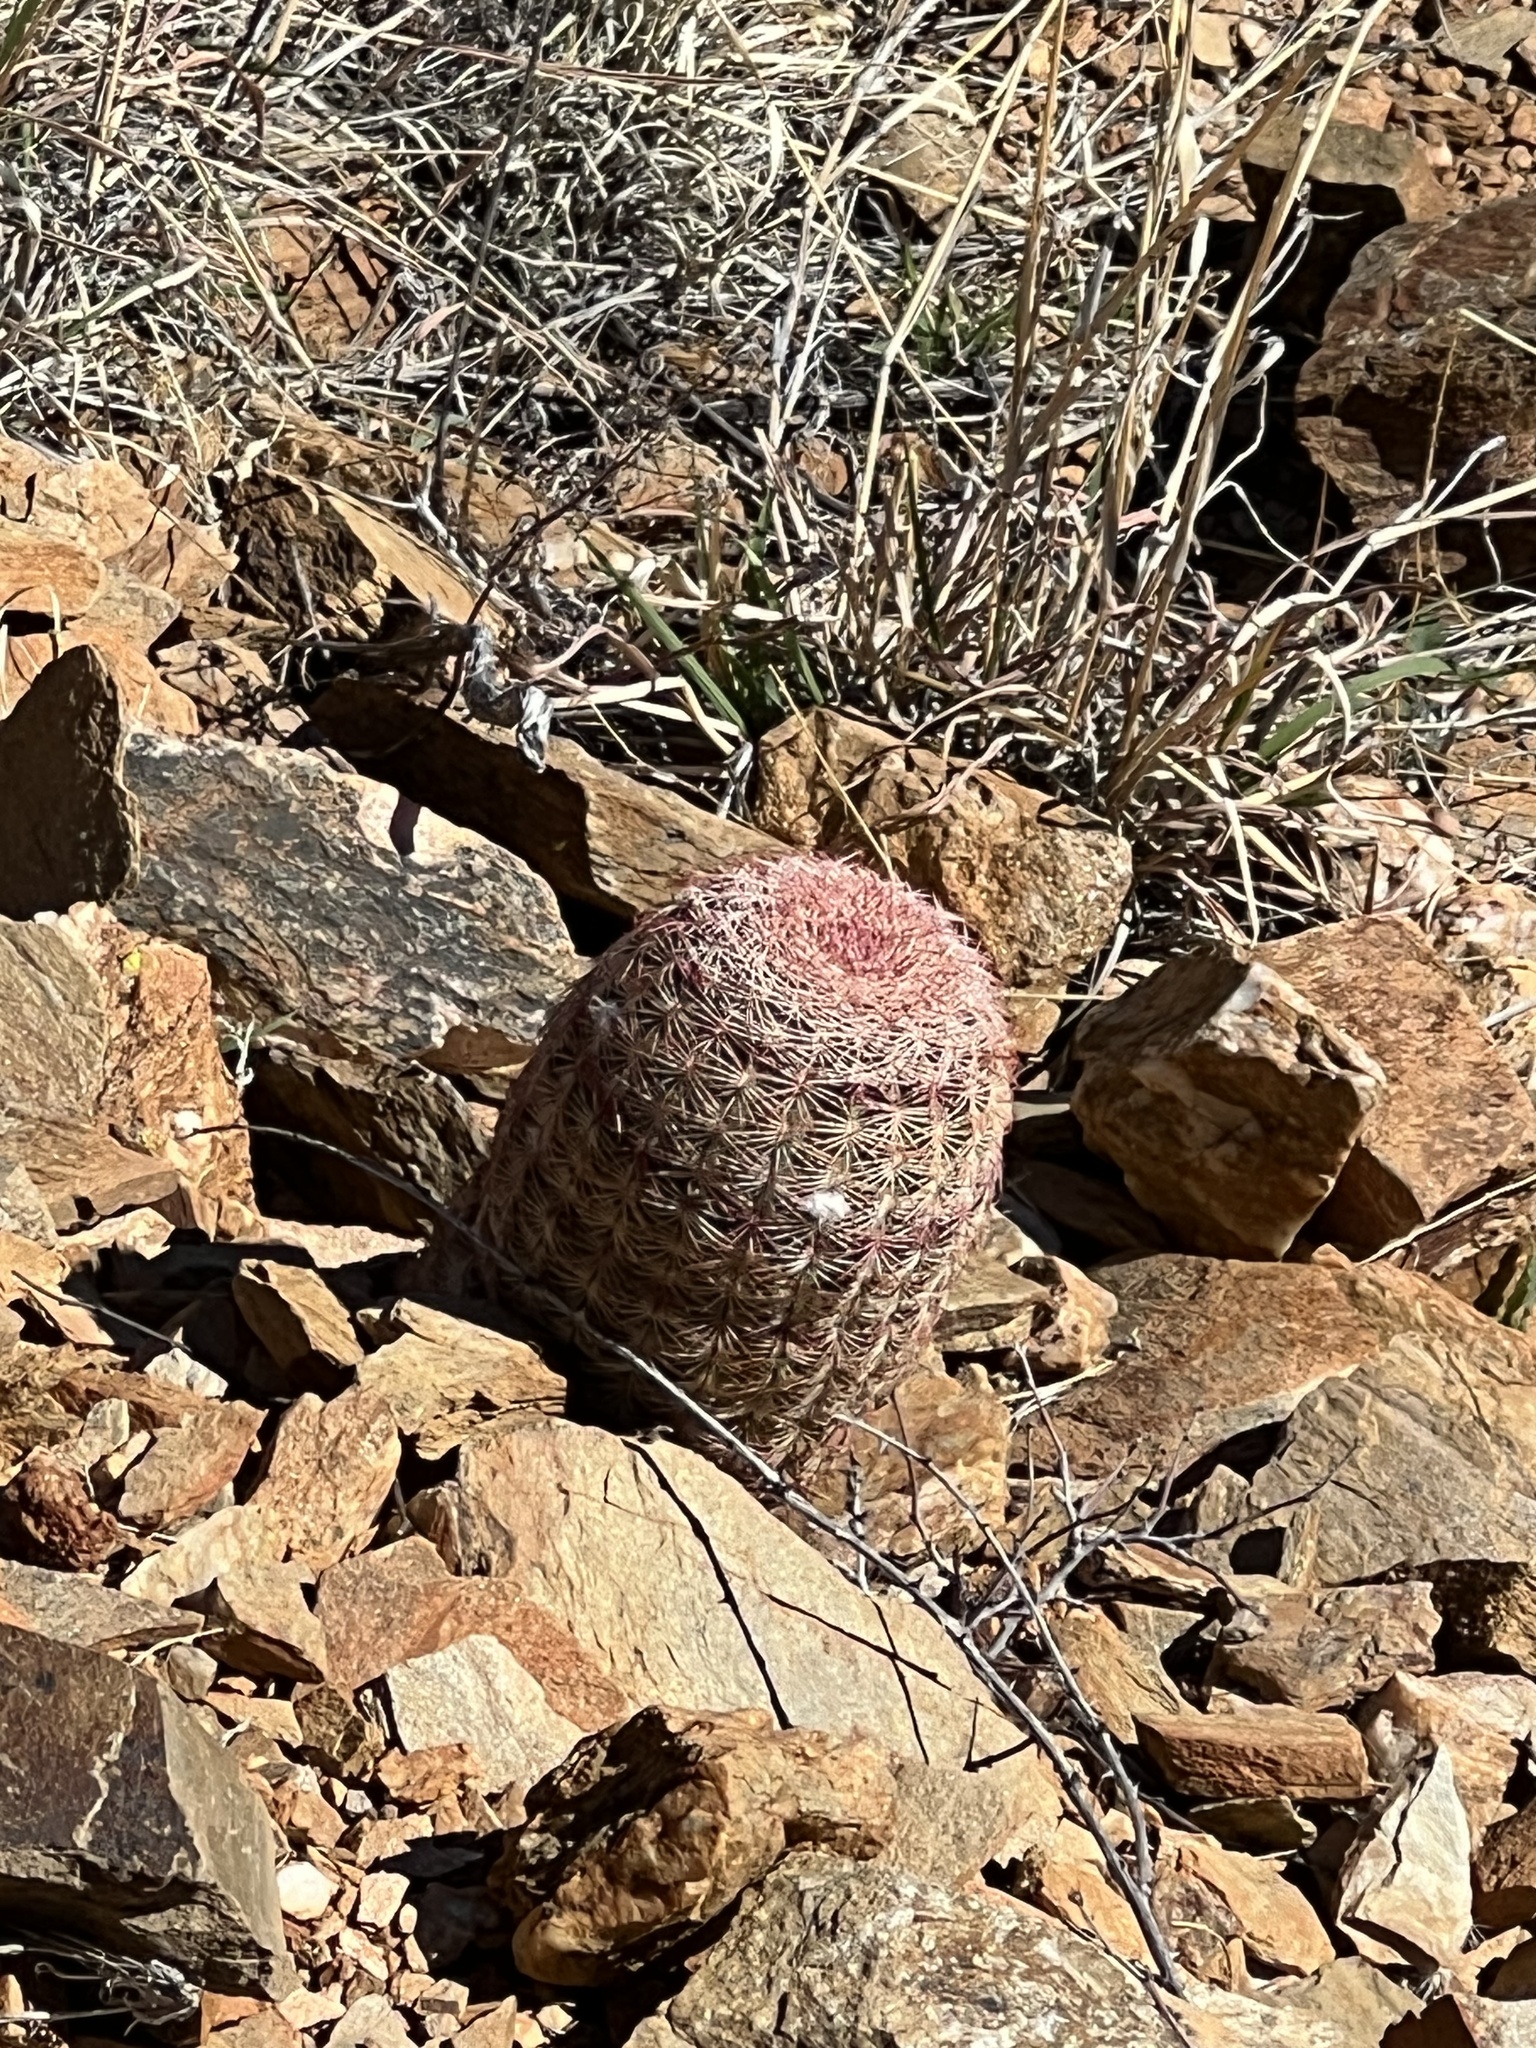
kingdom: Plantae
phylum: Tracheophyta
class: Magnoliopsida
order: Caryophyllales
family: Cactaceae
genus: Echinocereus
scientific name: Echinocereus rigidissimus
